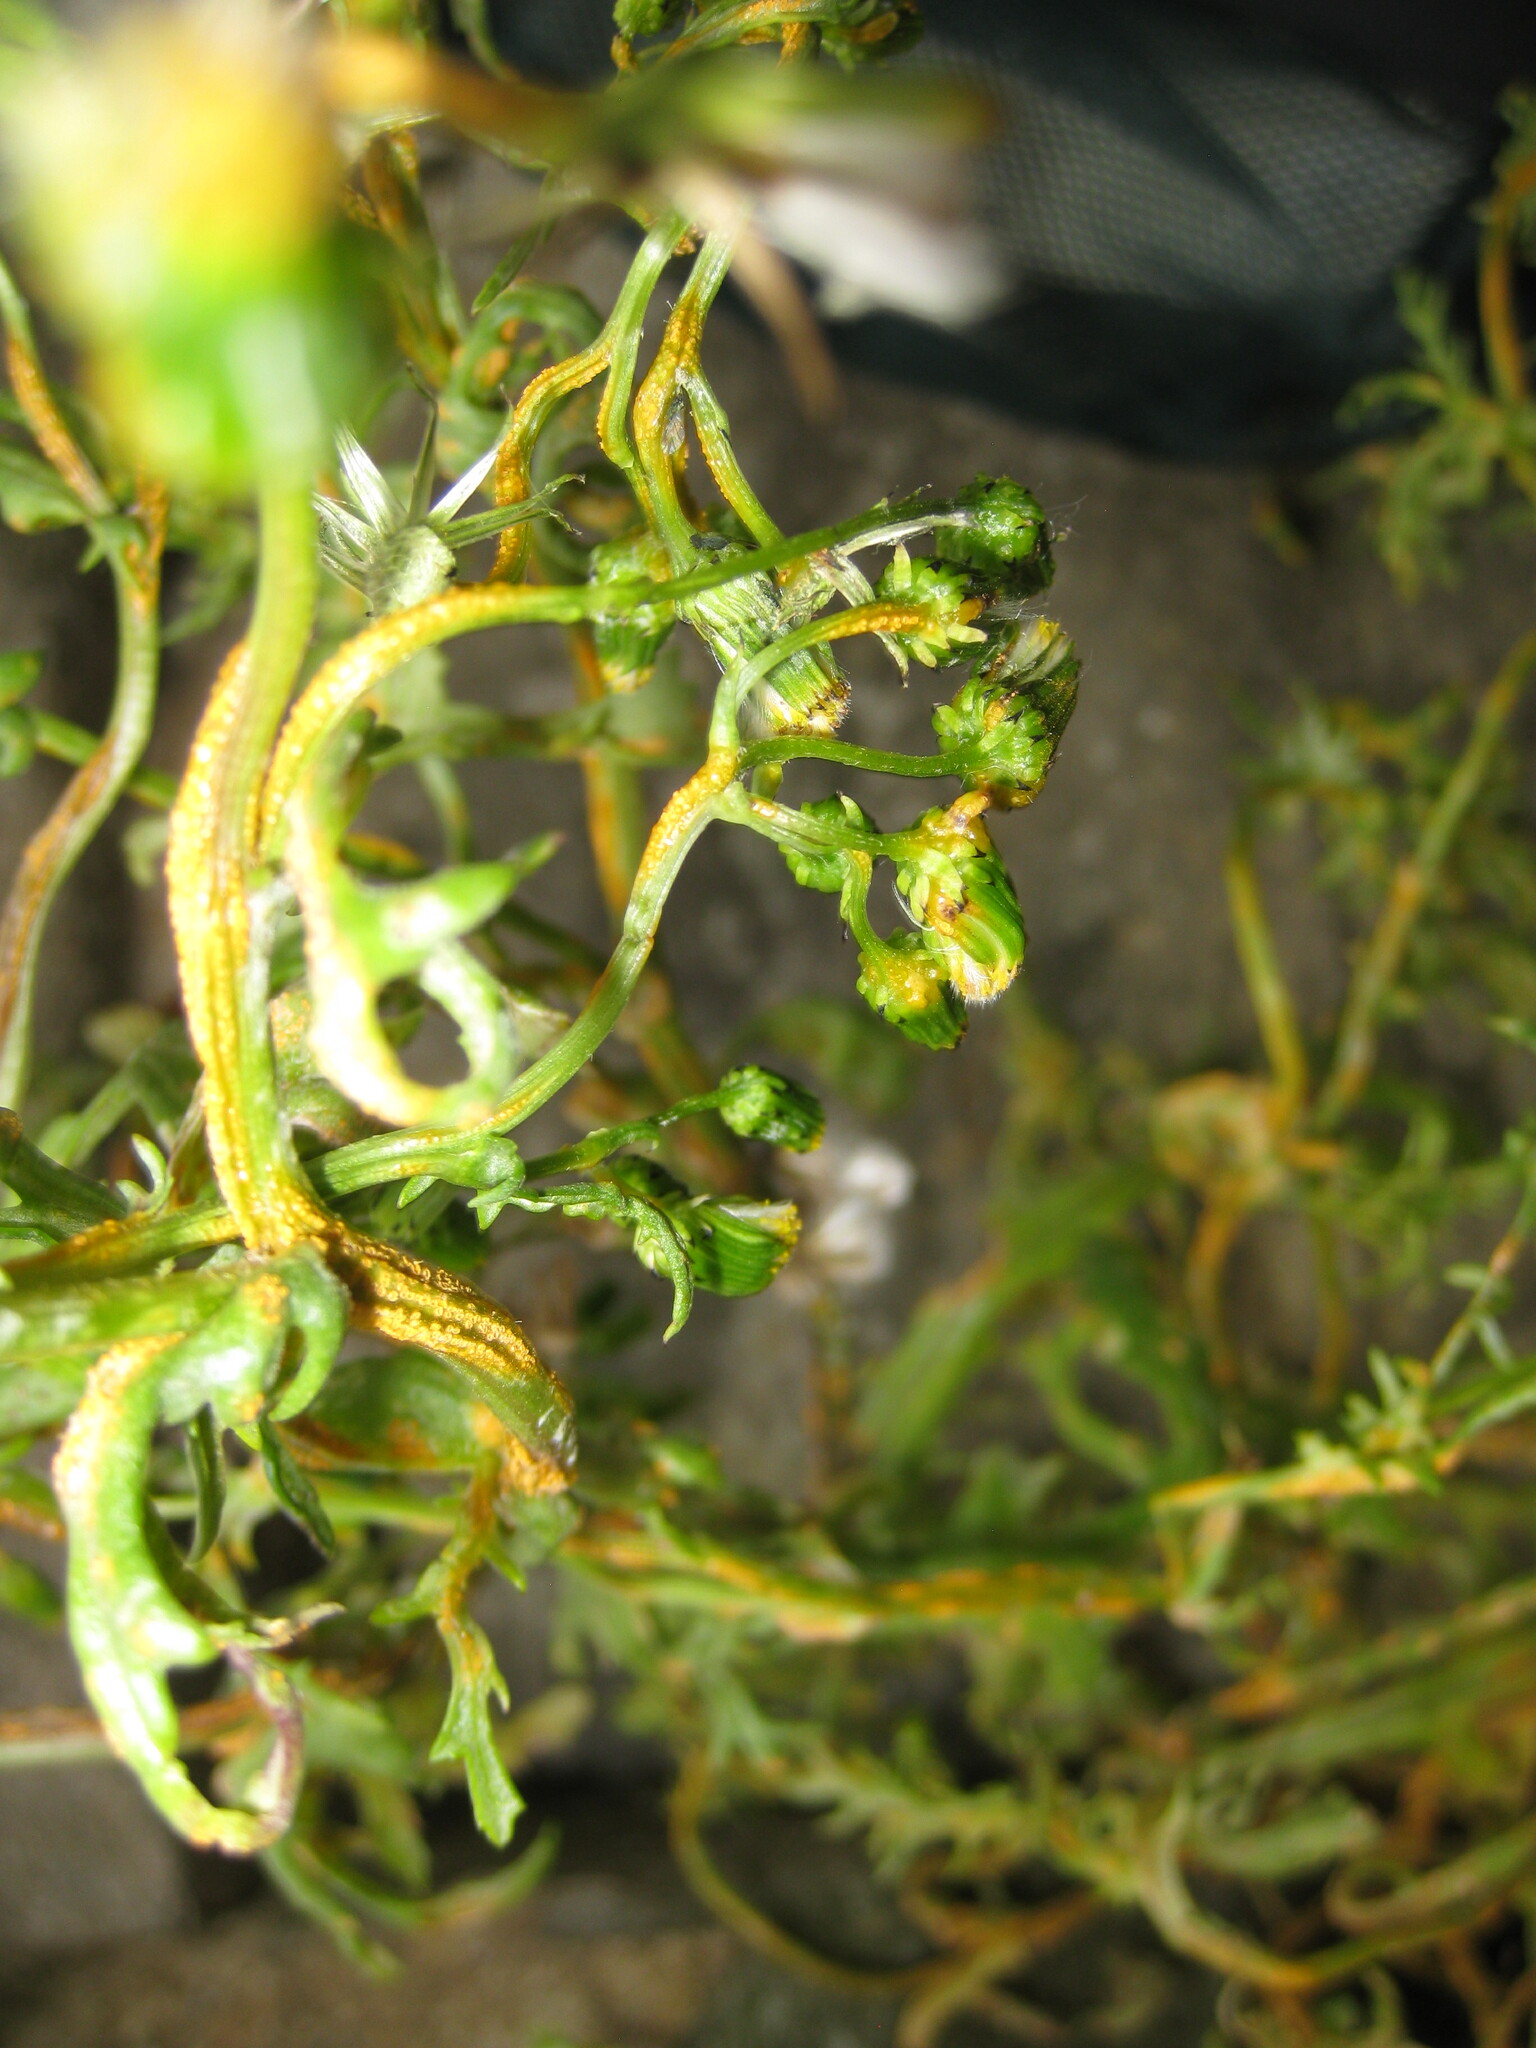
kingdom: Fungi
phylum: Basidiomycota
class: Pucciniomycetes
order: Pucciniales
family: Pucciniaceae
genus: Puccinia
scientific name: Puccinia lagenophorae
